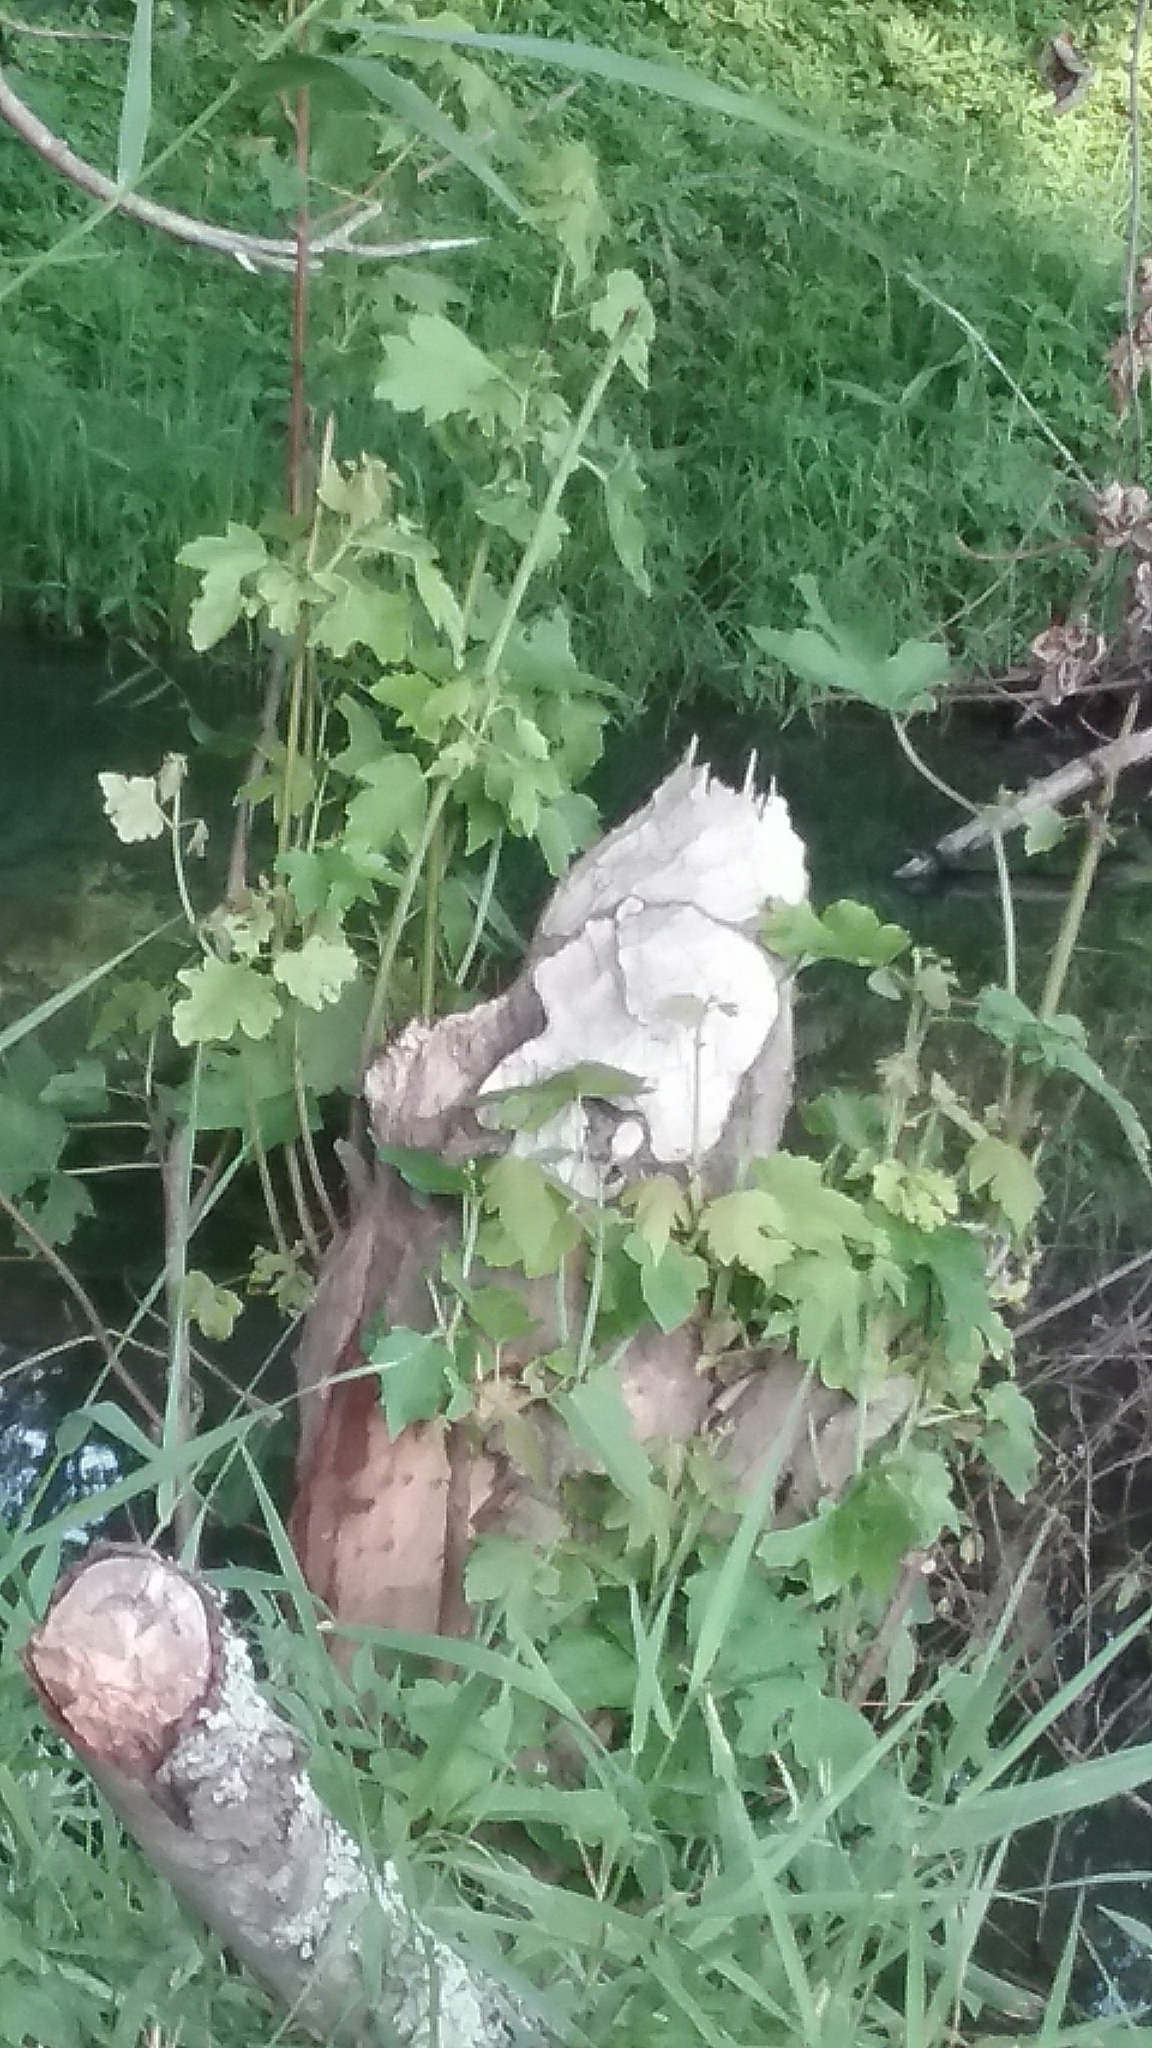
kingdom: Animalia
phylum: Chordata
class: Mammalia
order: Rodentia
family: Castoridae
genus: Castor
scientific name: Castor canadensis
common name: American beaver
